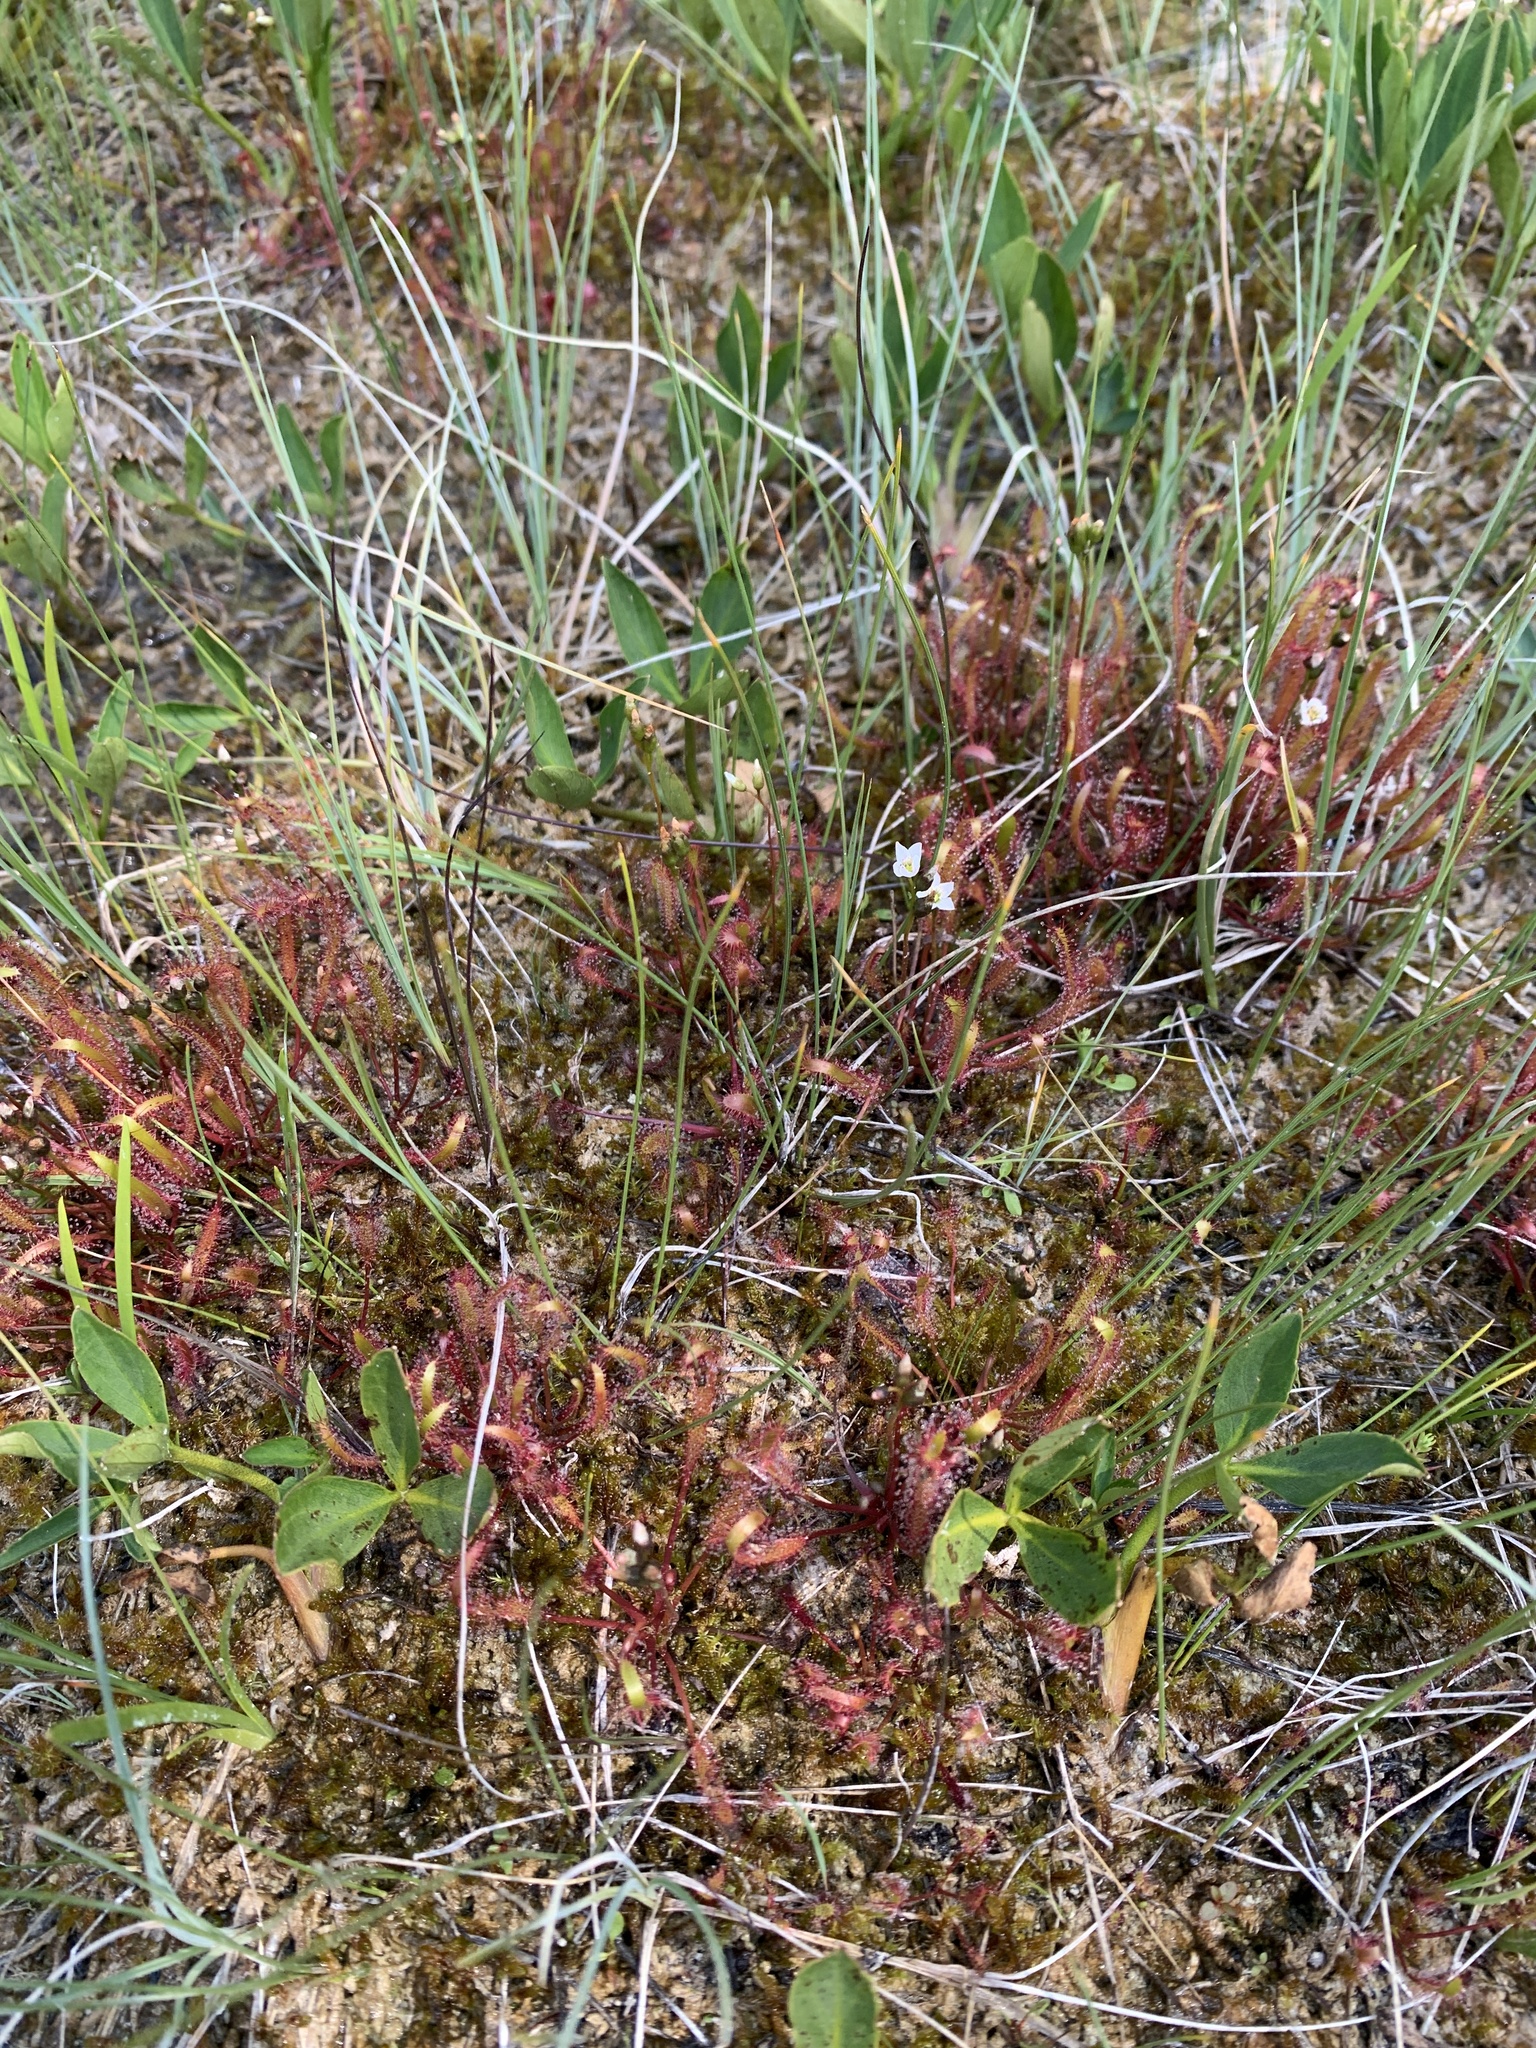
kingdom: Plantae
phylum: Tracheophyta
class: Magnoliopsida
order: Caryophyllales
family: Droseraceae
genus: Drosera
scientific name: Drosera linearis
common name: Linear-leaved sundew
